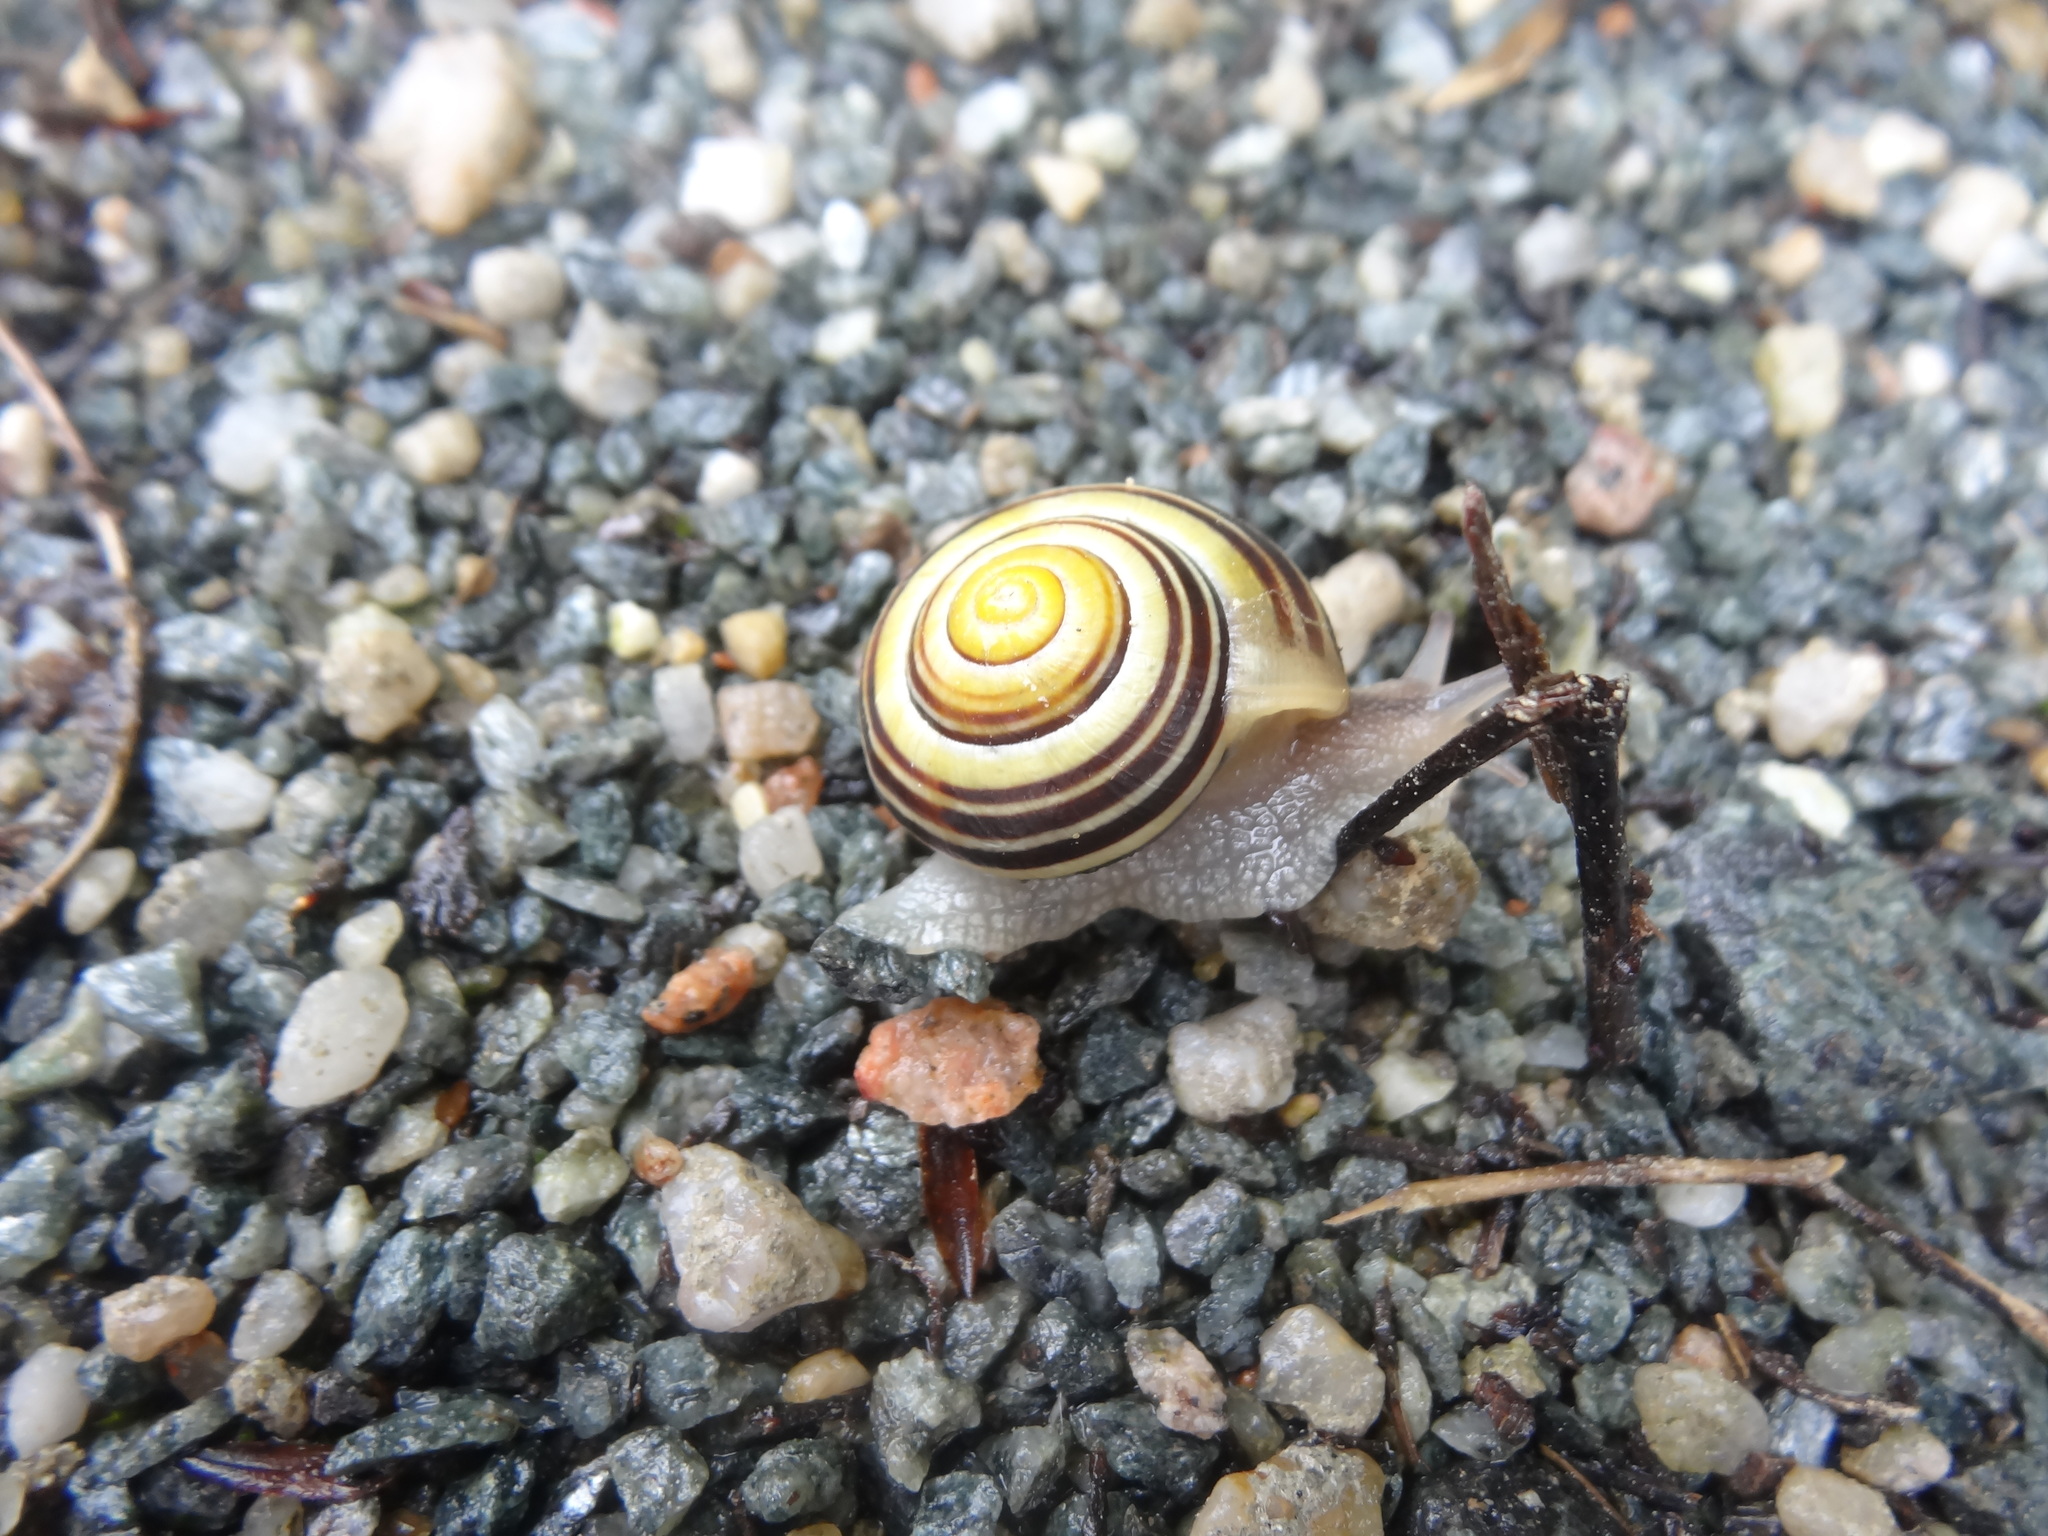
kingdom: Animalia
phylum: Mollusca
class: Gastropoda
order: Stylommatophora
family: Helicidae
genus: Cepaea
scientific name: Cepaea
